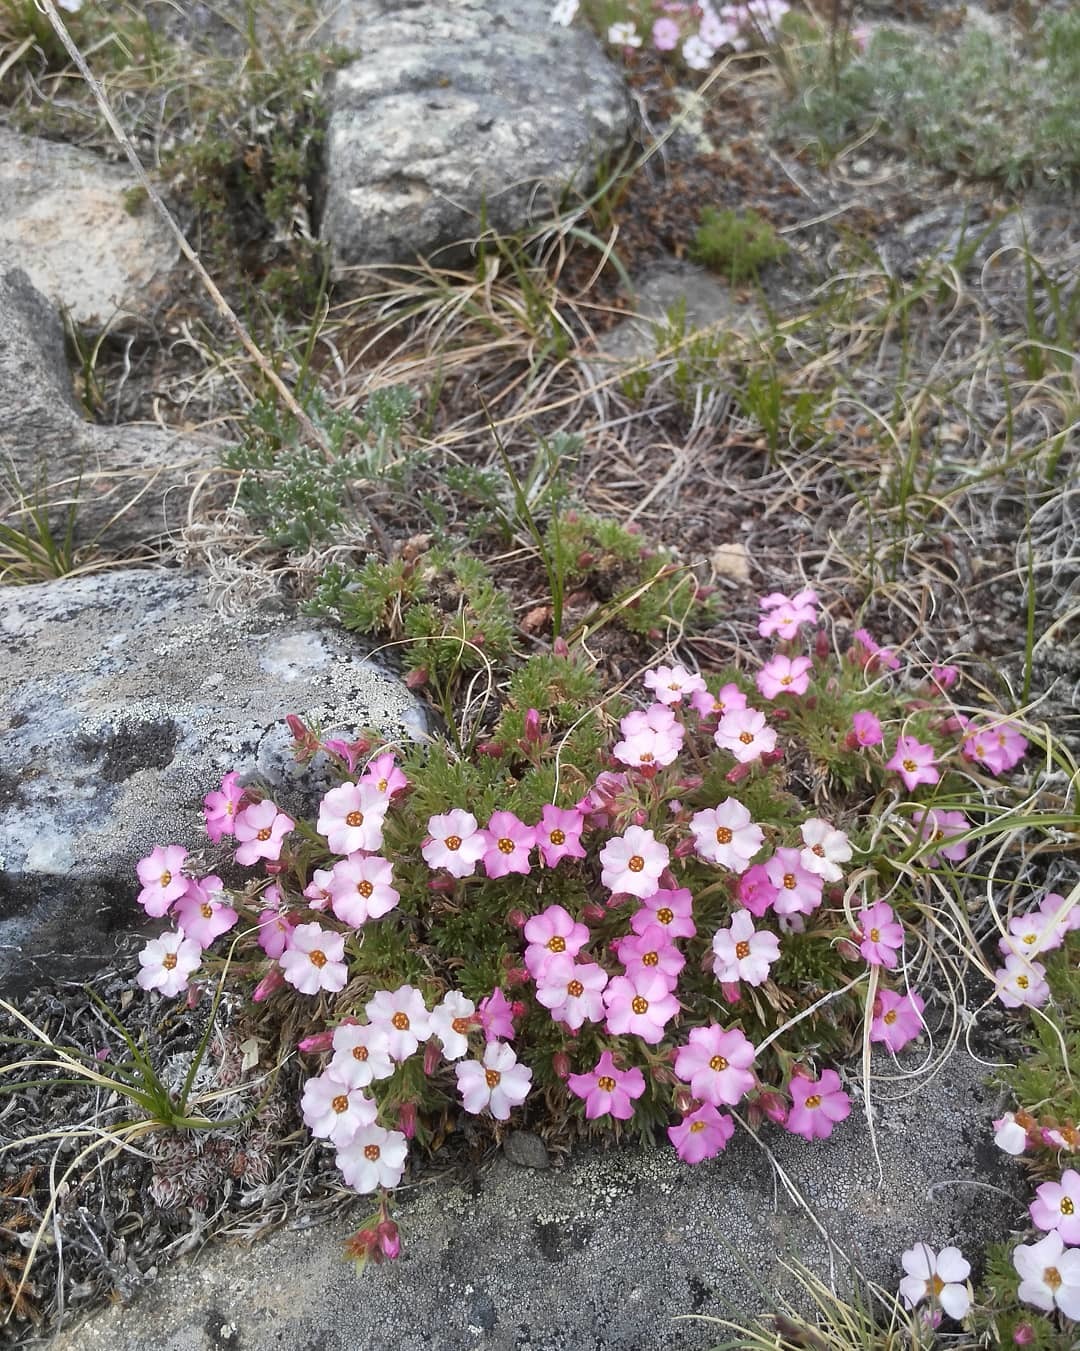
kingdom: Plantae
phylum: Tracheophyta
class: Magnoliopsida
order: Rosales
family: Rosaceae
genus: Chamaerhodos
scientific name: Chamaerhodos altaica
